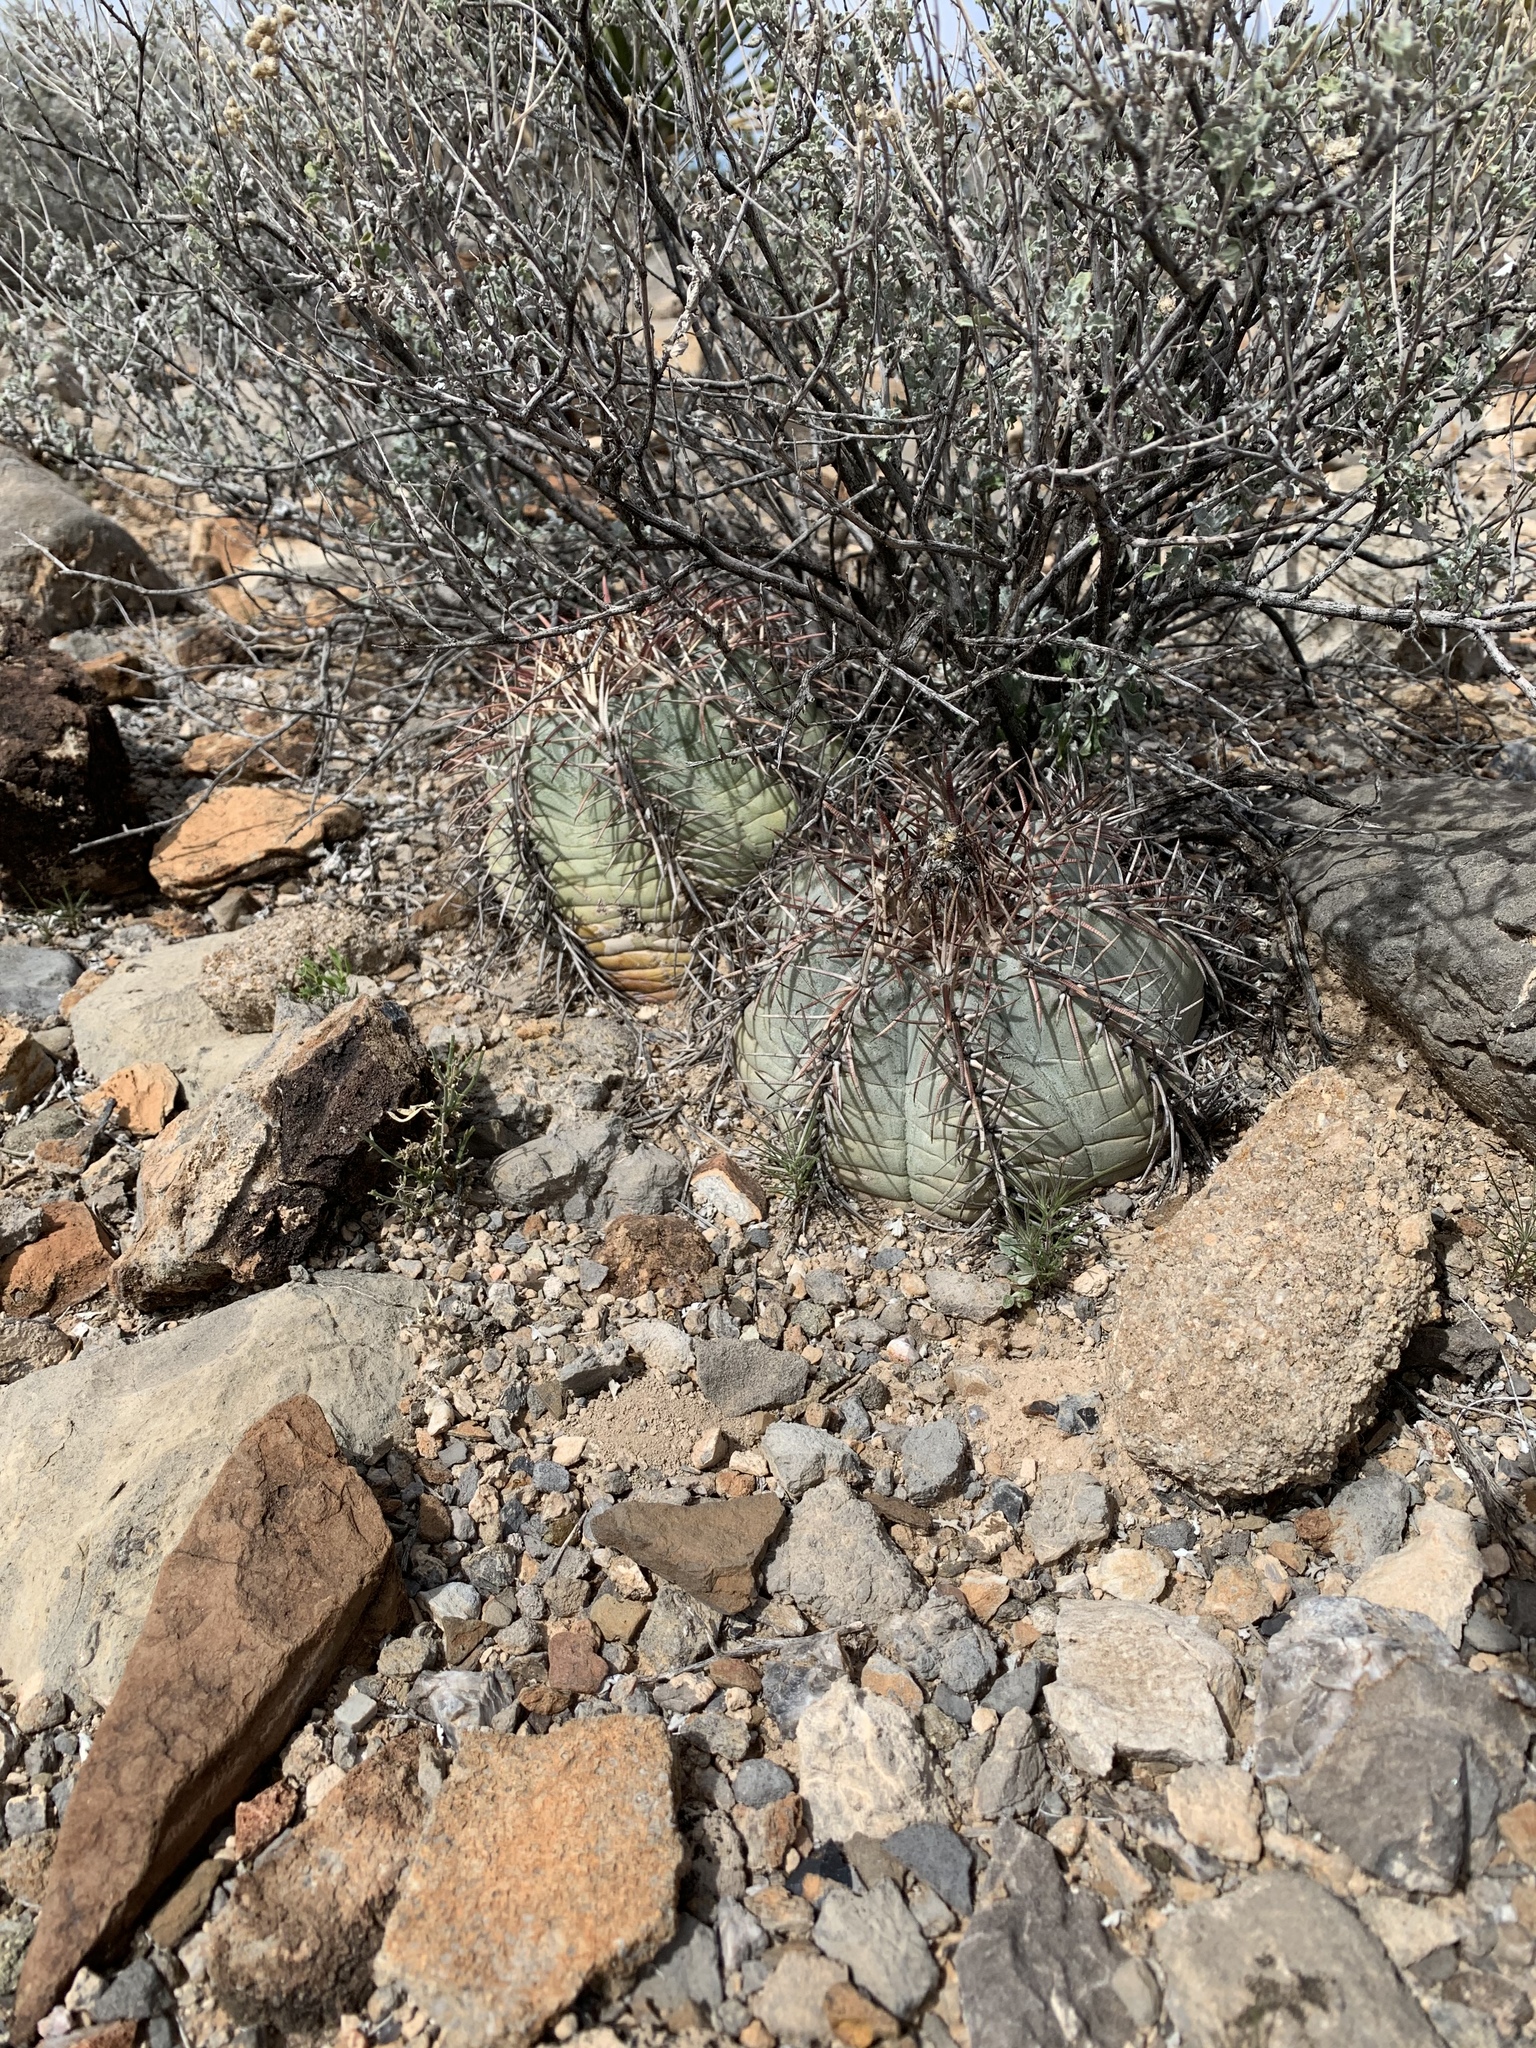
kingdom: Plantae
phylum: Tracheophyta
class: Magnoliopsida
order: Caryophyllales
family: Cactaceae
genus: Echinocactus
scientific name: Echinocactus horizonthalonius
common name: Devilshead
